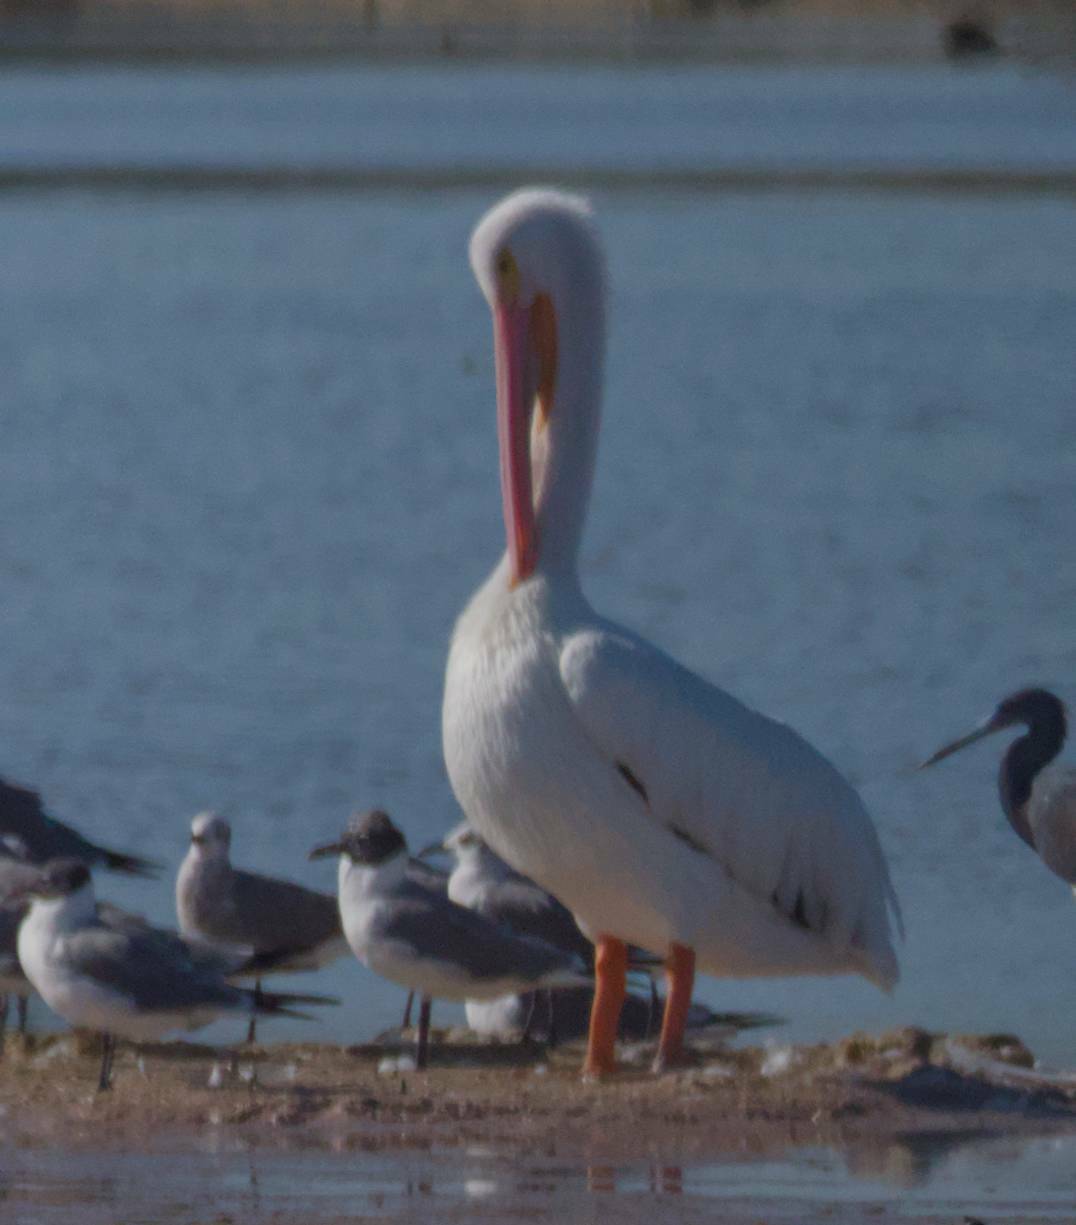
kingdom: Animalia
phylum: Chordata
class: Aves
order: Pelecaniformes
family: Pelecanidae
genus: Pelecanus
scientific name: Pelecanus erythrorhynchos
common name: American white pelican
